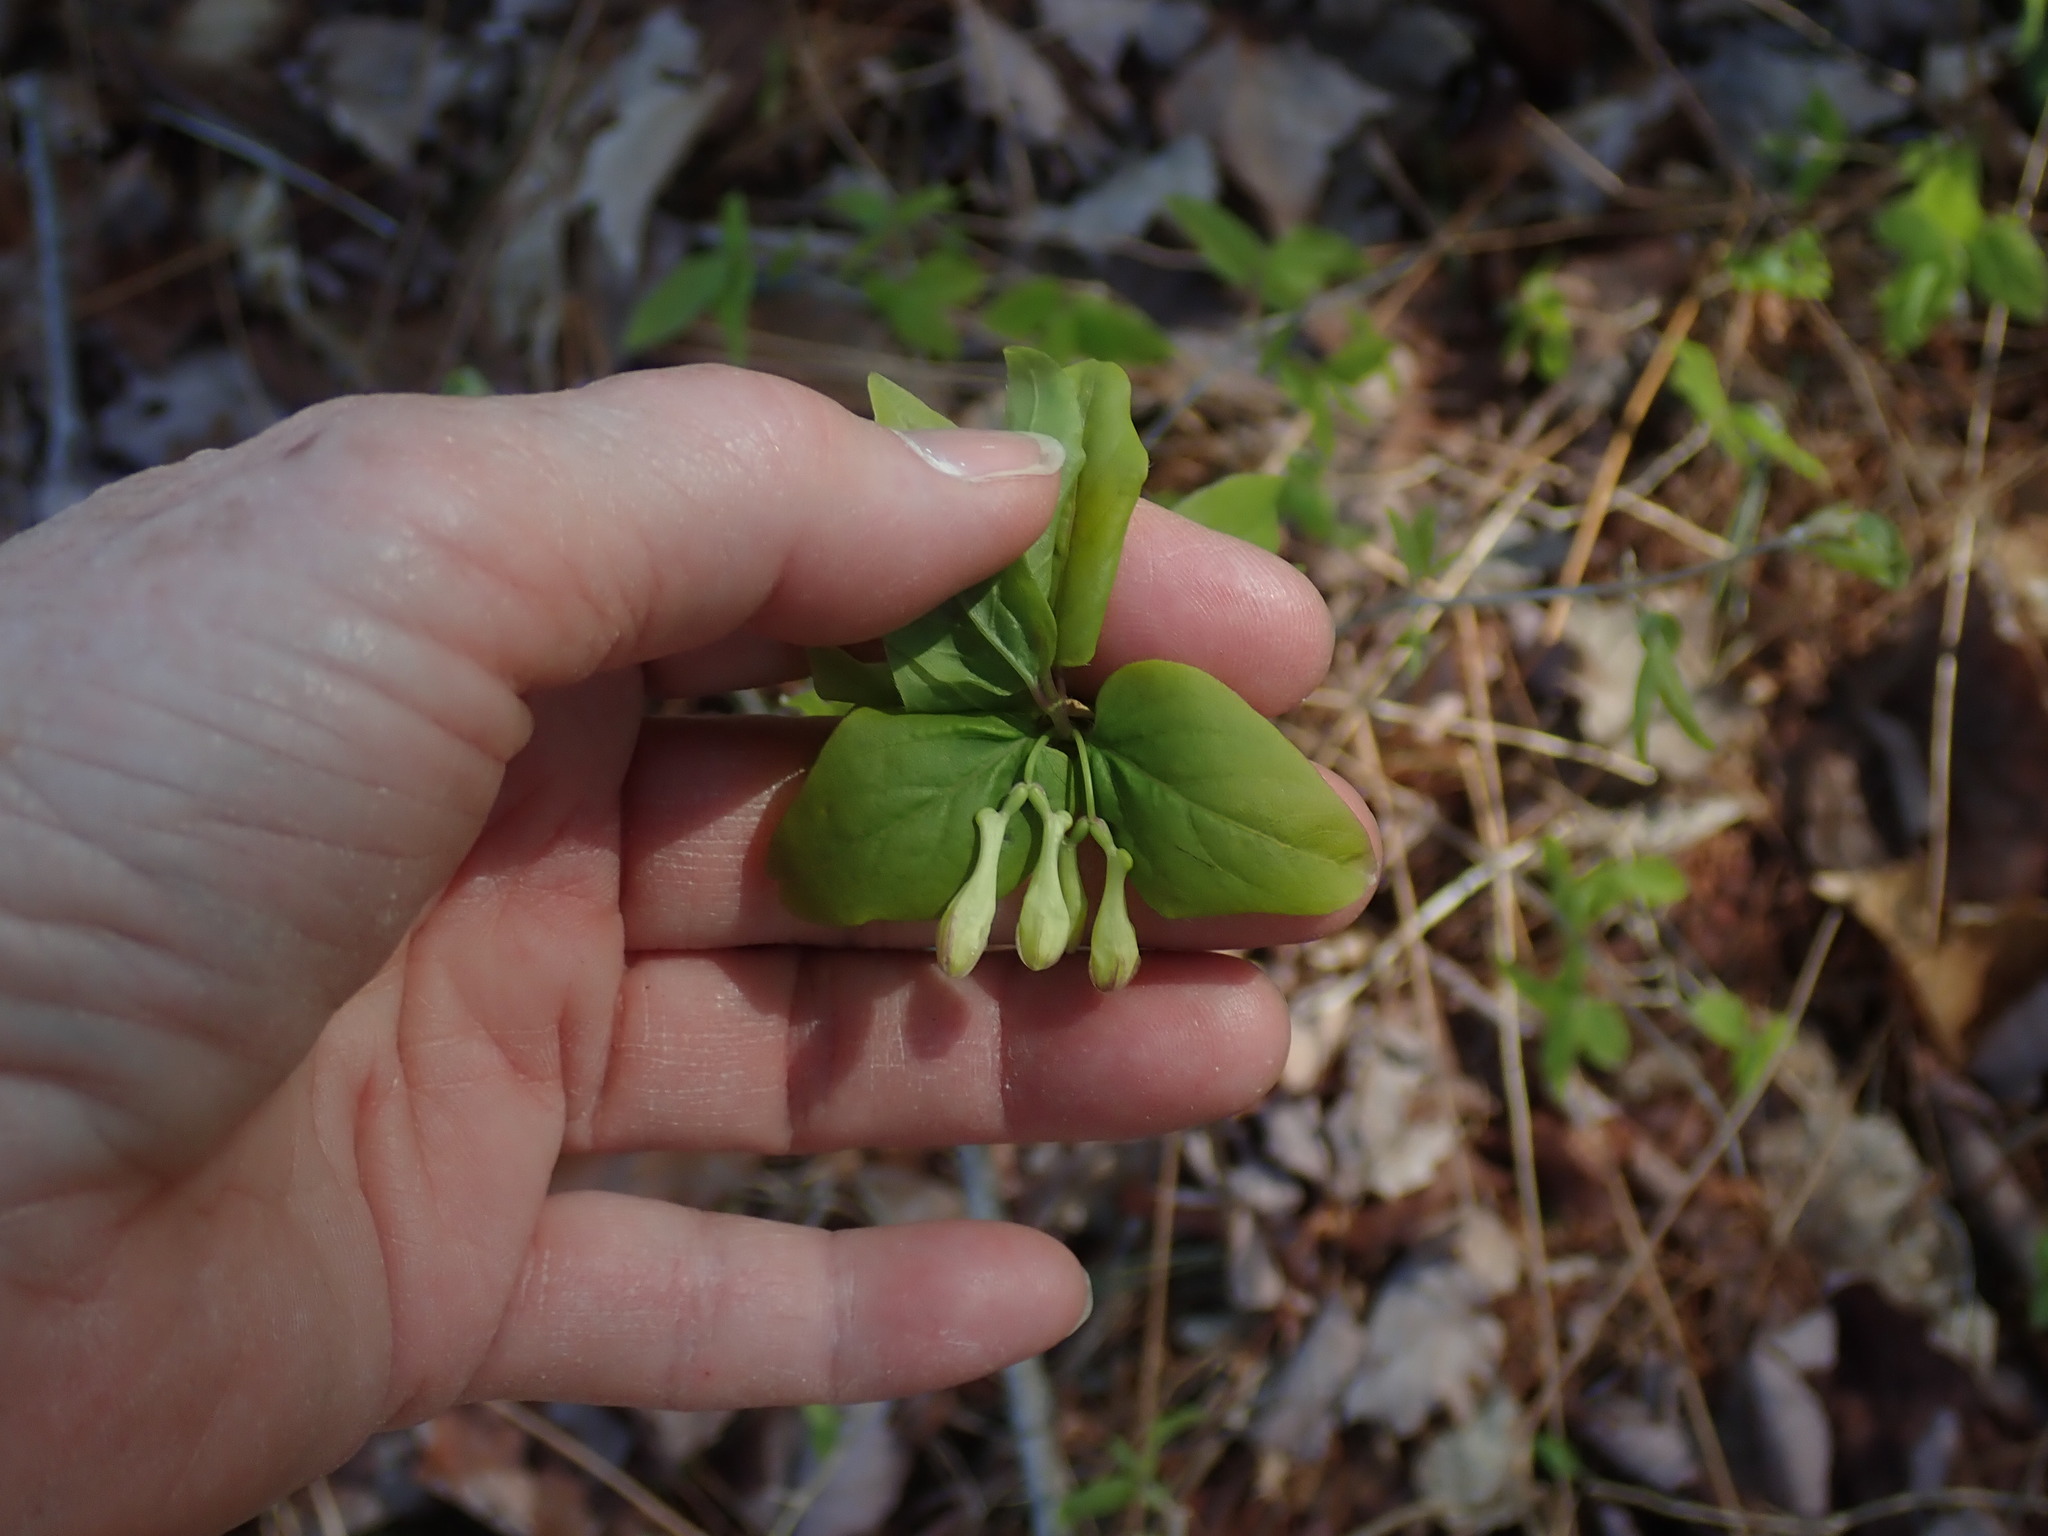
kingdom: Plantae
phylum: Tracheophyta
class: Magnoliopsida
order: Dipsacales
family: Caprifoliaceae
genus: Lonicera
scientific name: Lonicera canadensis
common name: American fly-honeysuckle
